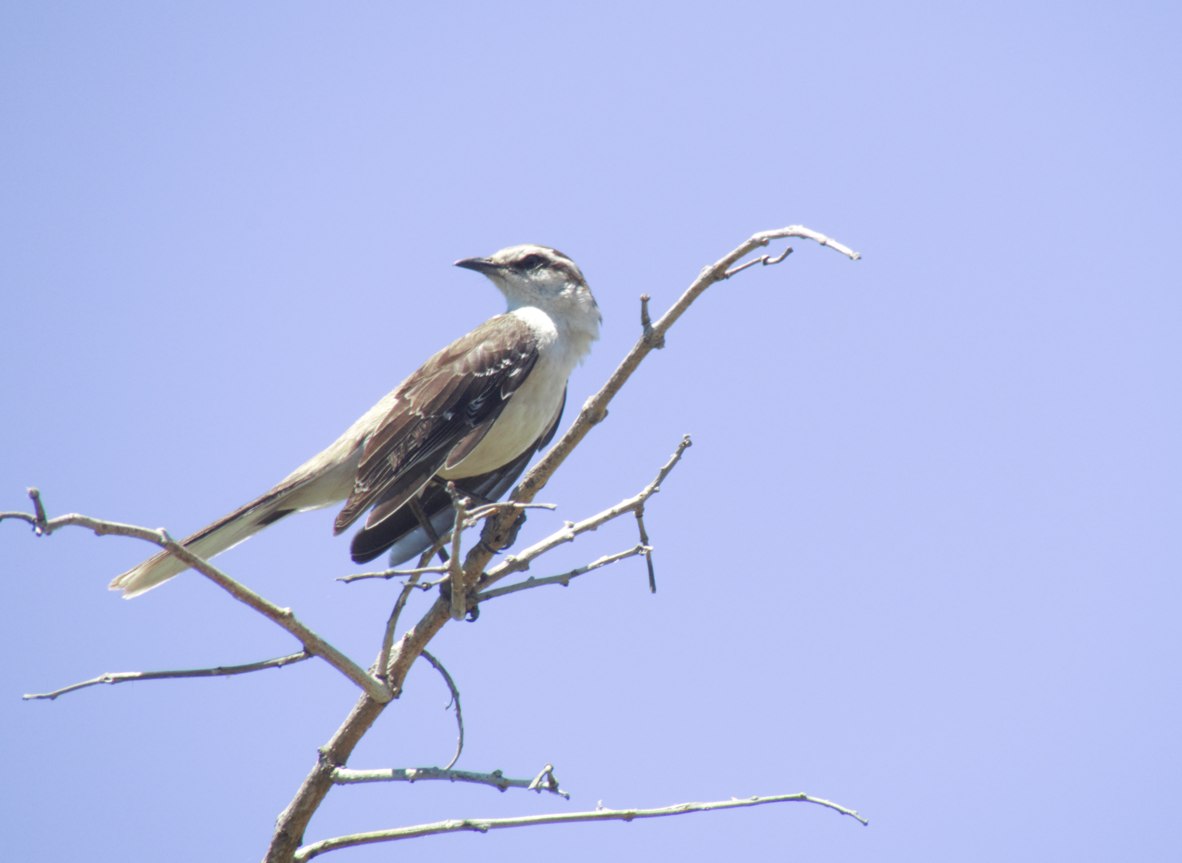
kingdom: Animalia
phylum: Chordata
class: Aves
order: Passeriformes
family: Mimidae
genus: Mimus
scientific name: Mimus saturninus
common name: Chalk-browed mockingbird
